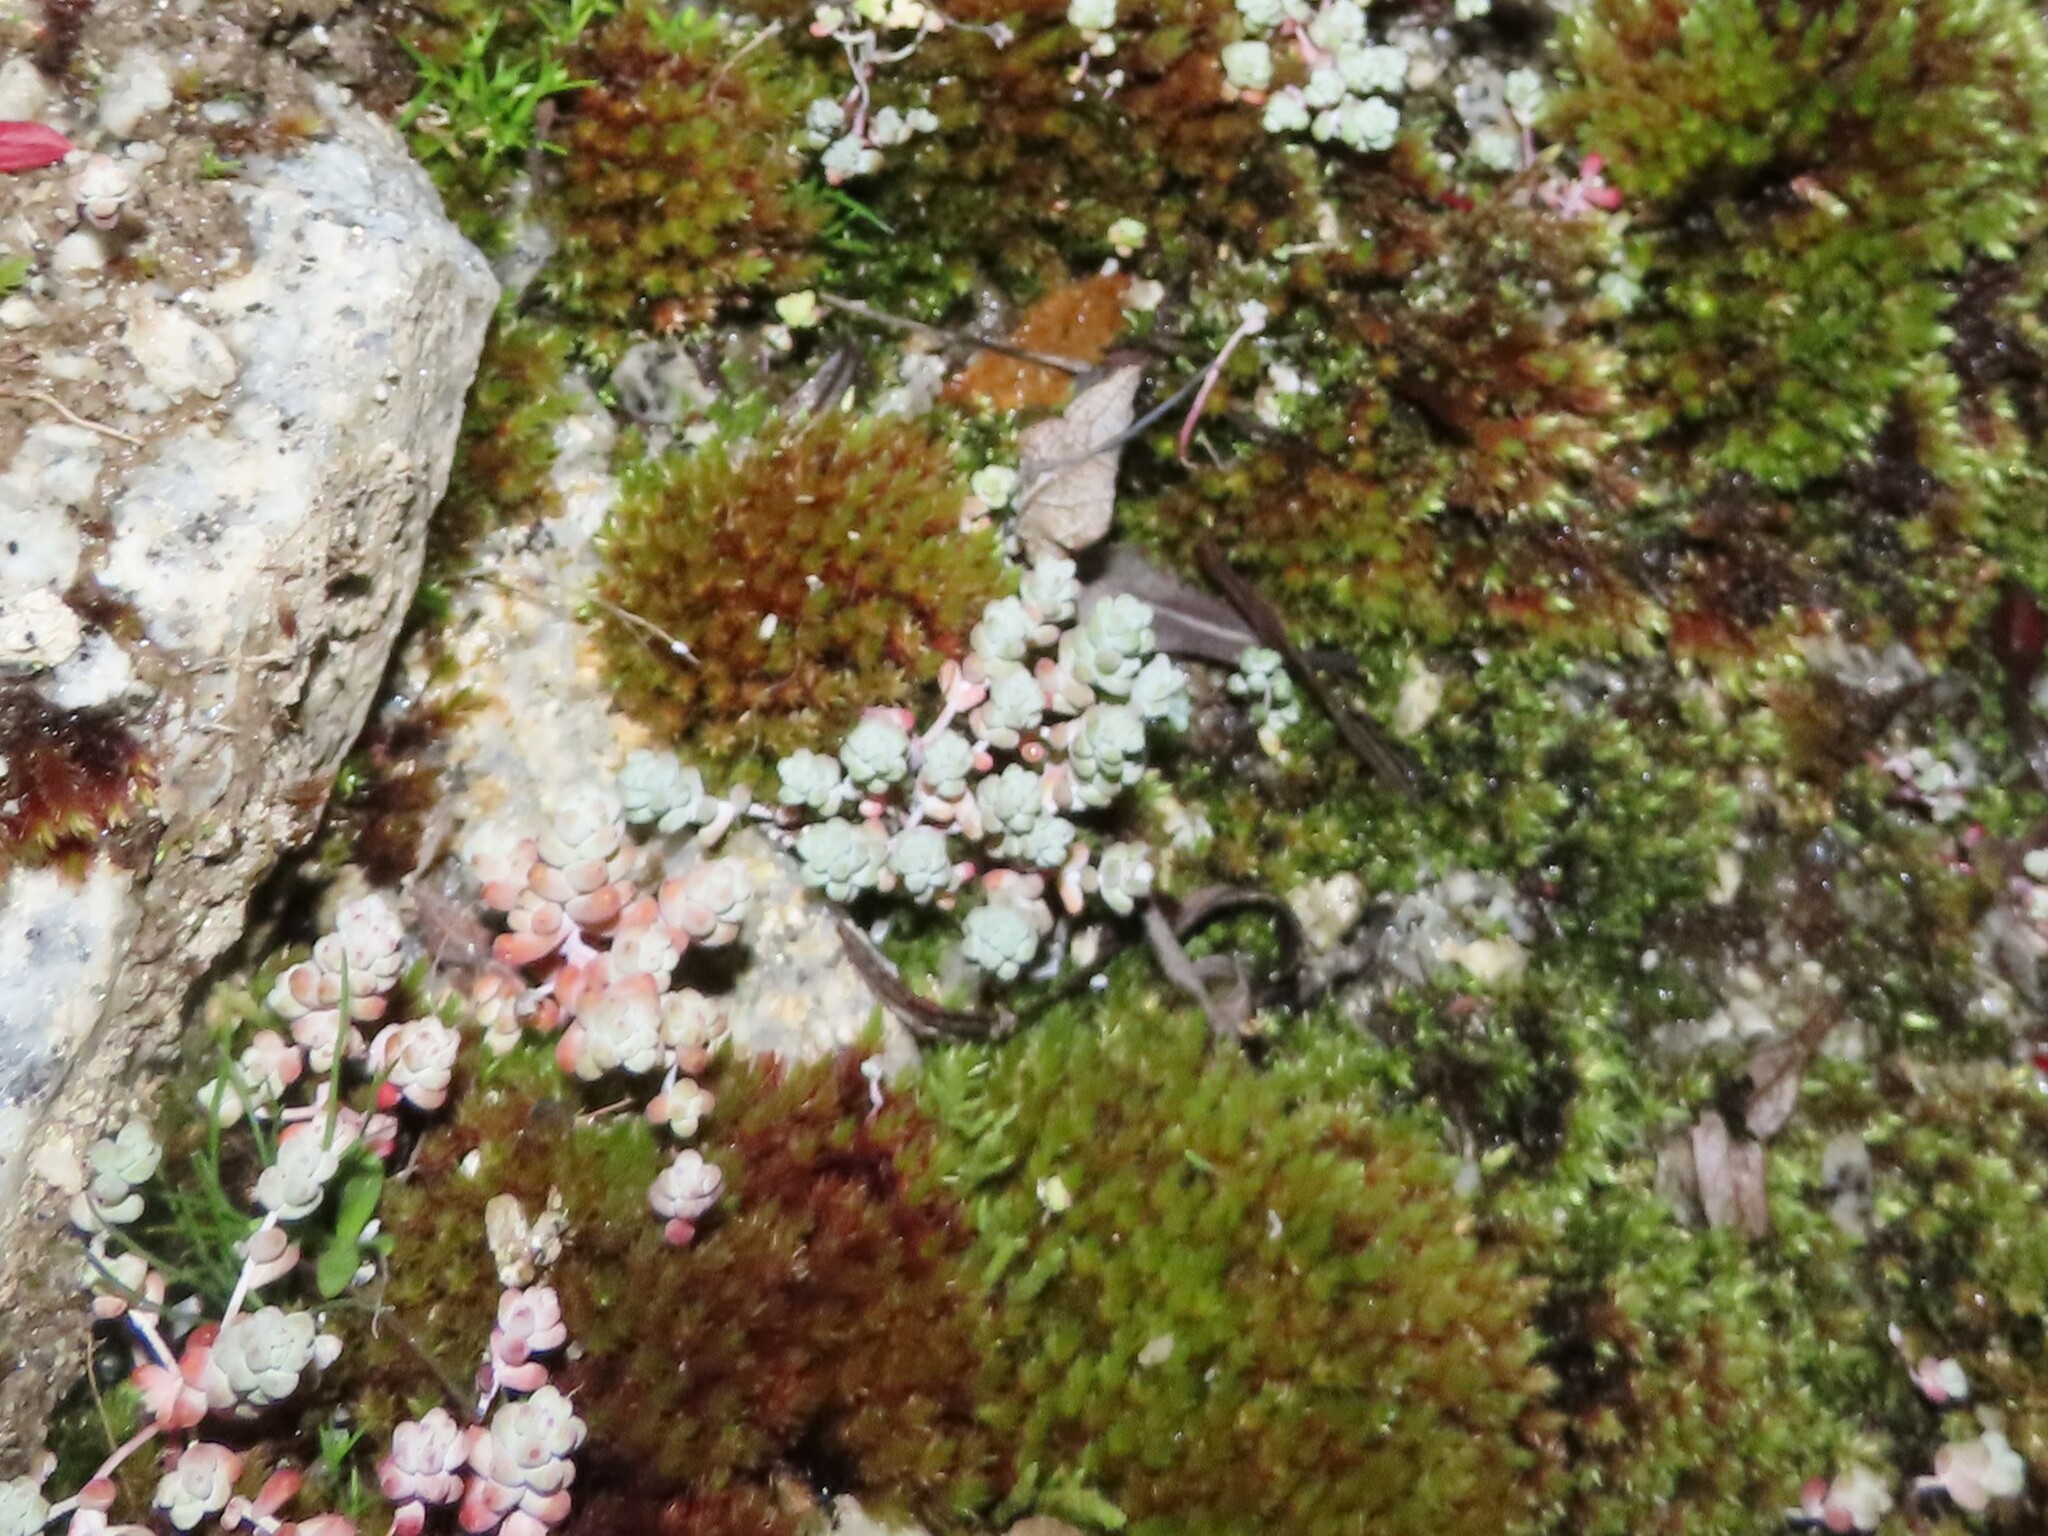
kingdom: Plantae
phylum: Tracheophyta
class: Magnoliopsida
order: Saxifragales
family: Crassulaceae
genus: Sedum
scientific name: Sedum pedicellatum
